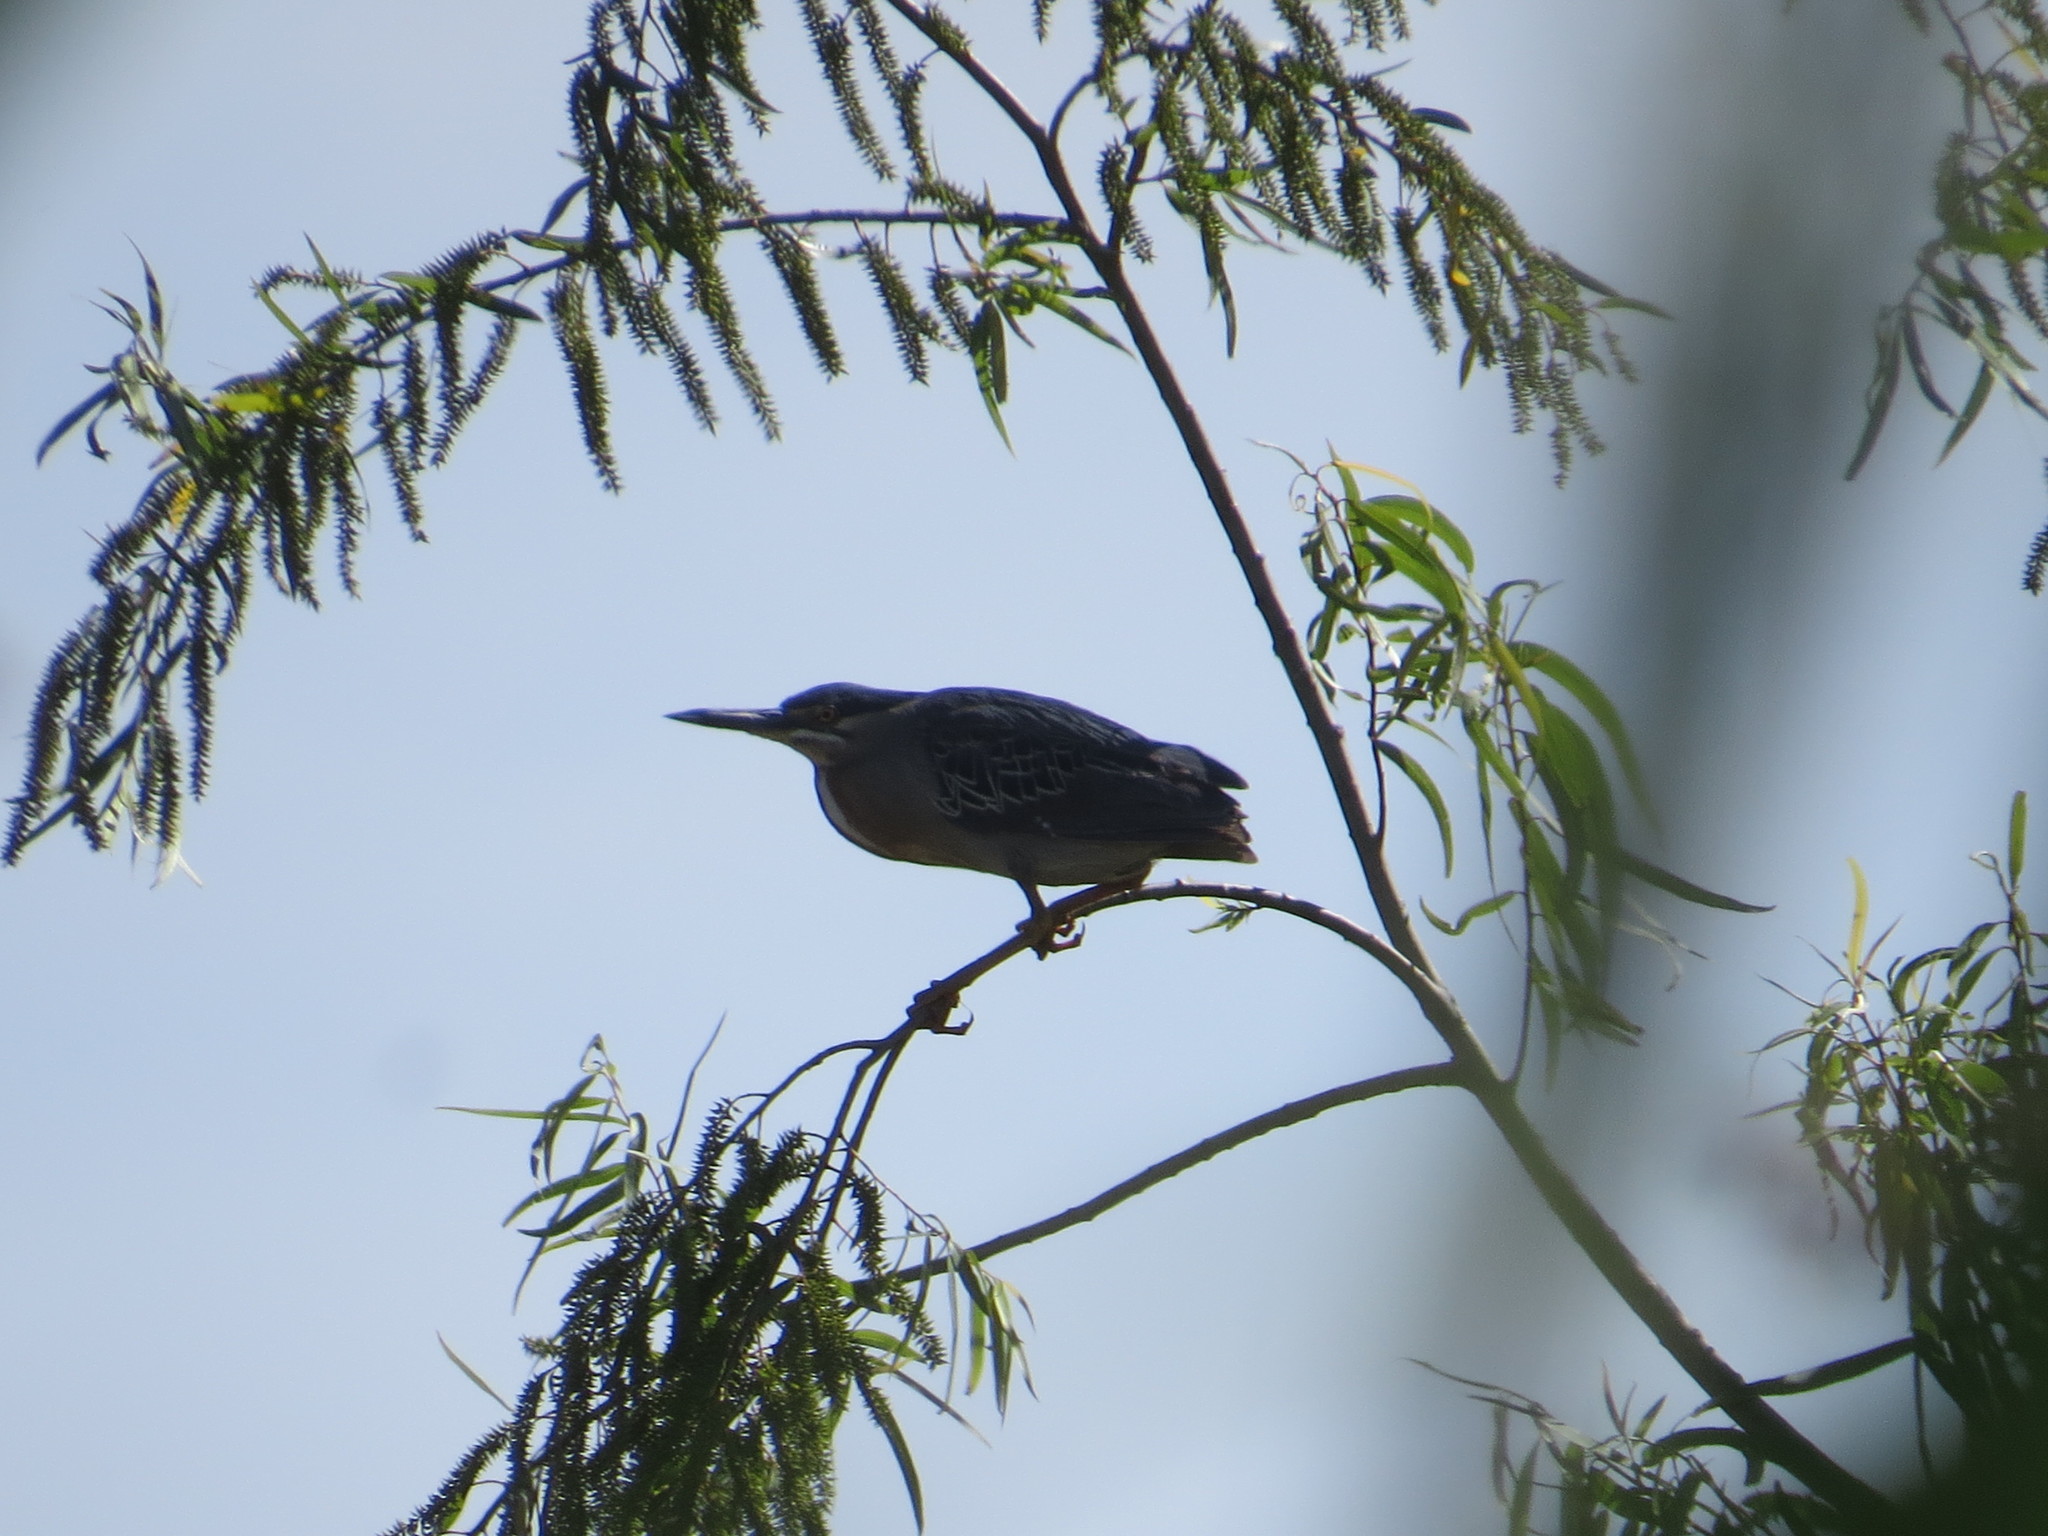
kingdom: Animalia
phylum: Chordata
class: Aves
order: Pelecaniformes
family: Ardeidae
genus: Butorides
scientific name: Butorides striata
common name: Striated heron
